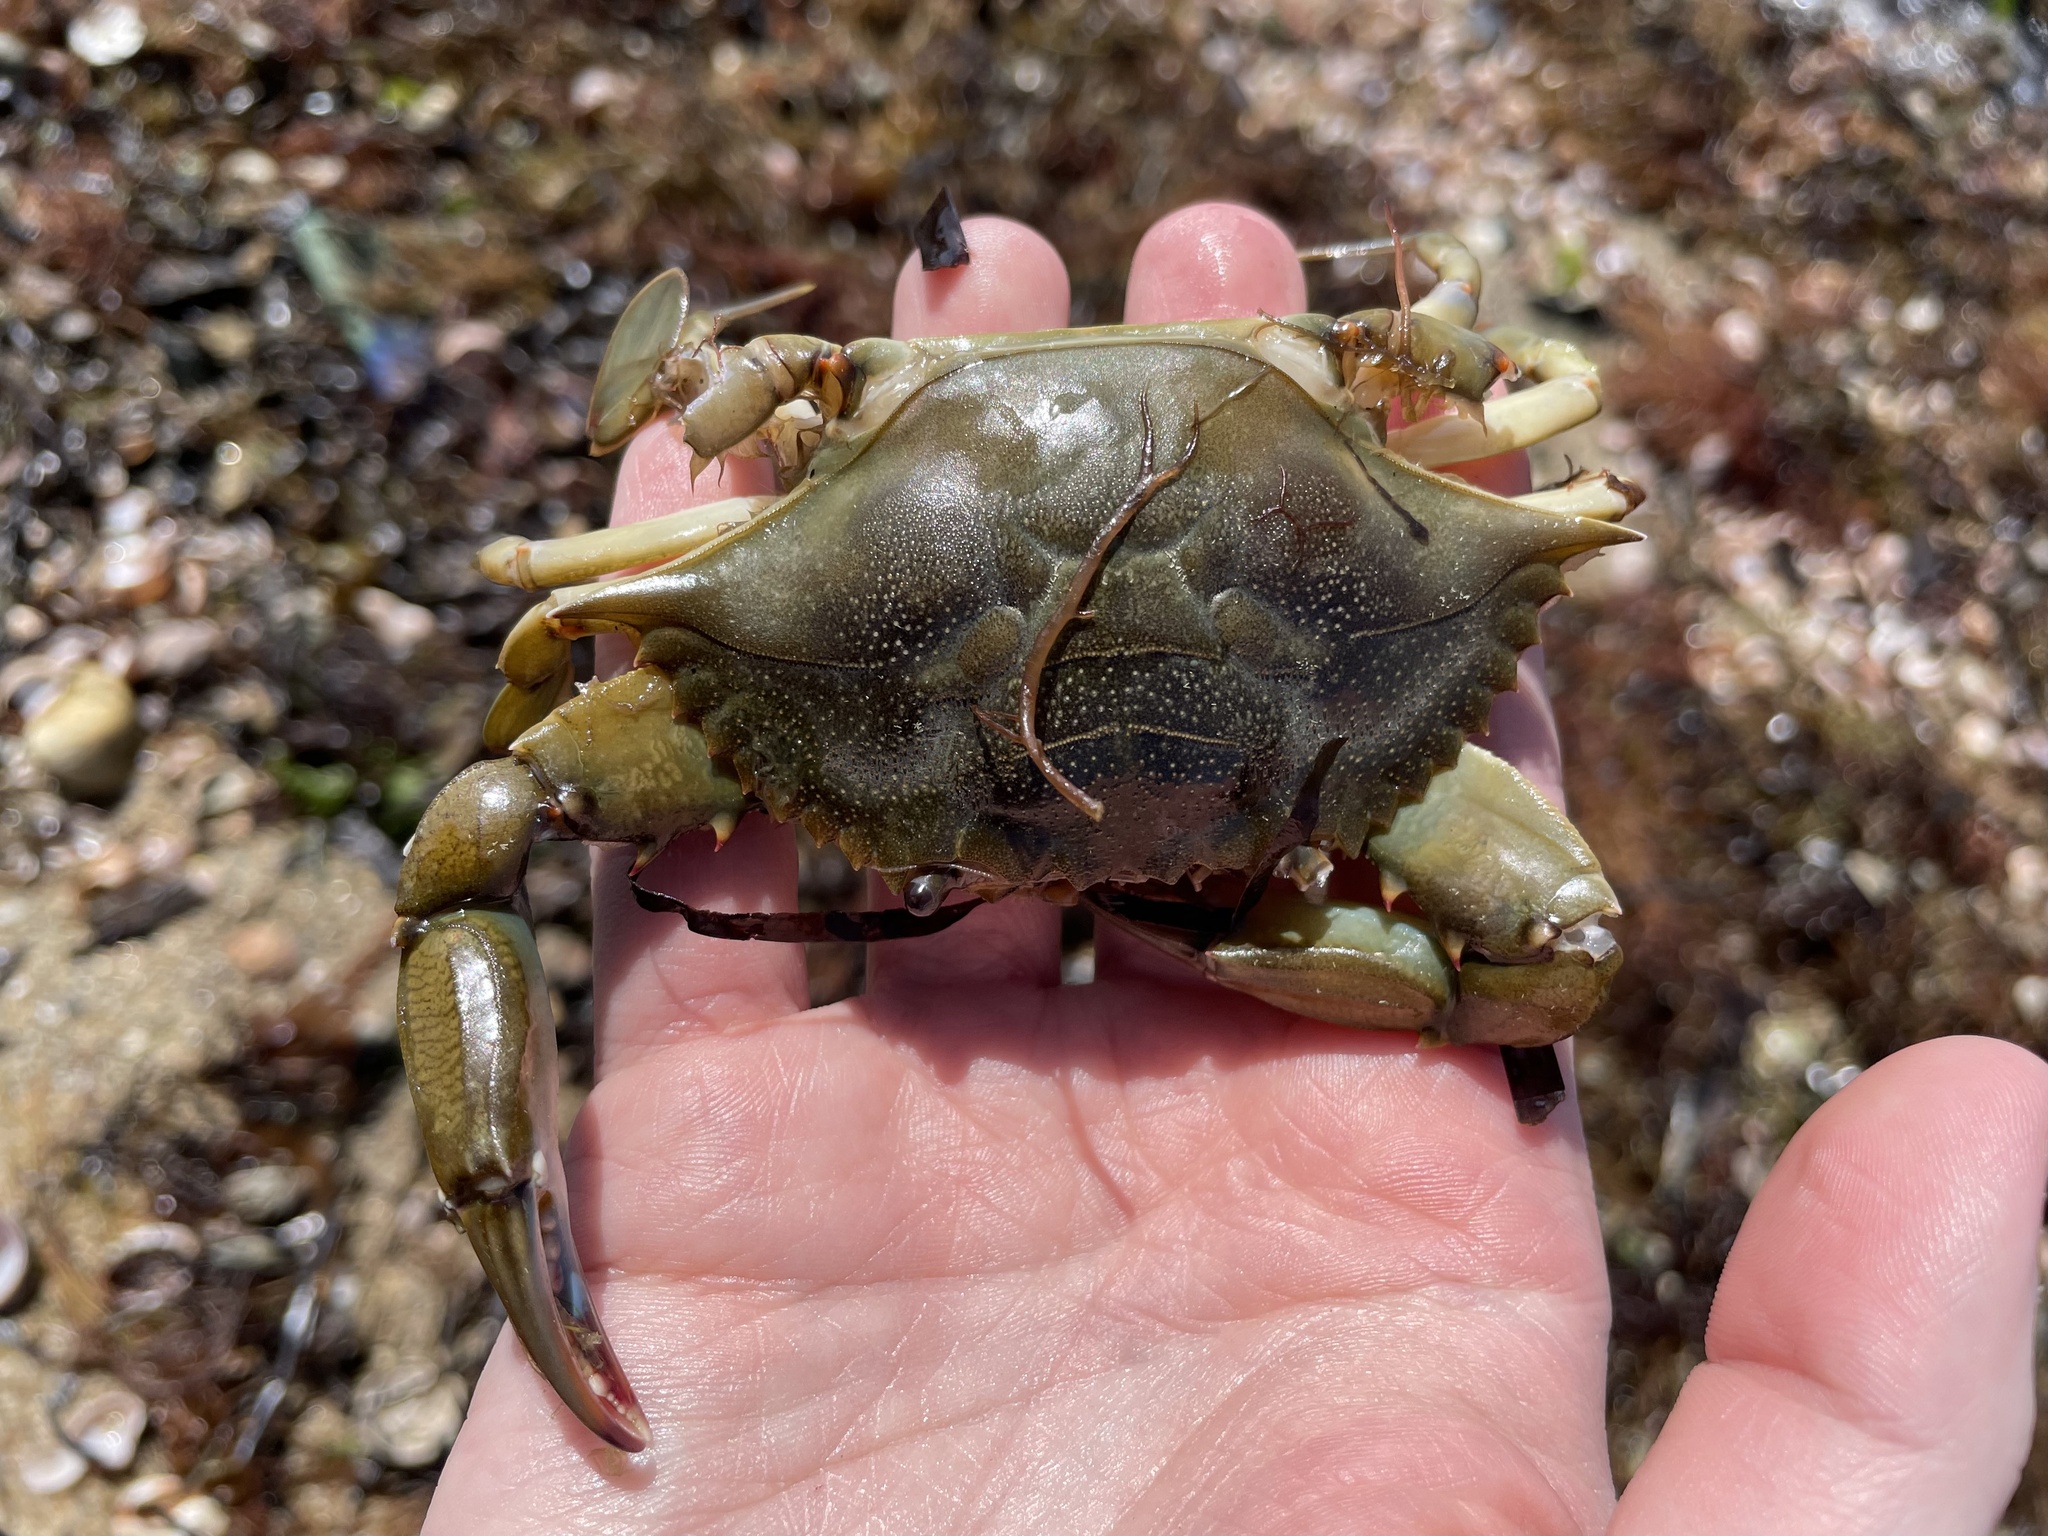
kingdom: Animalia
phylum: Arthropoda
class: Malacostraca
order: Decapoda
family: Portunidae
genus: Callinectes
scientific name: Callinectes sapidus
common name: Blue crab
